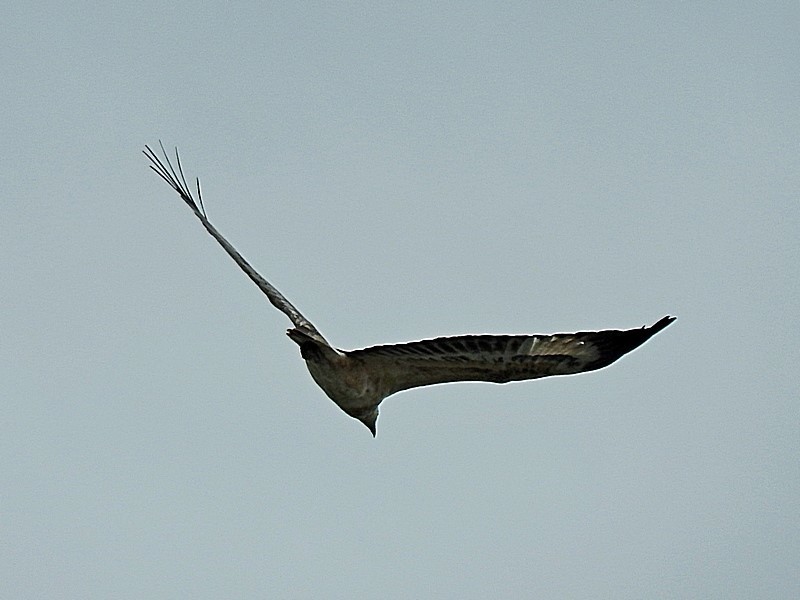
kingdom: Animalia
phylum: Chordata
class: Aves
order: Accipitriformes
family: Accipitridae
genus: Haliaeetus
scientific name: Haliaeetus leucogaster
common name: White-bellied sea eagle
